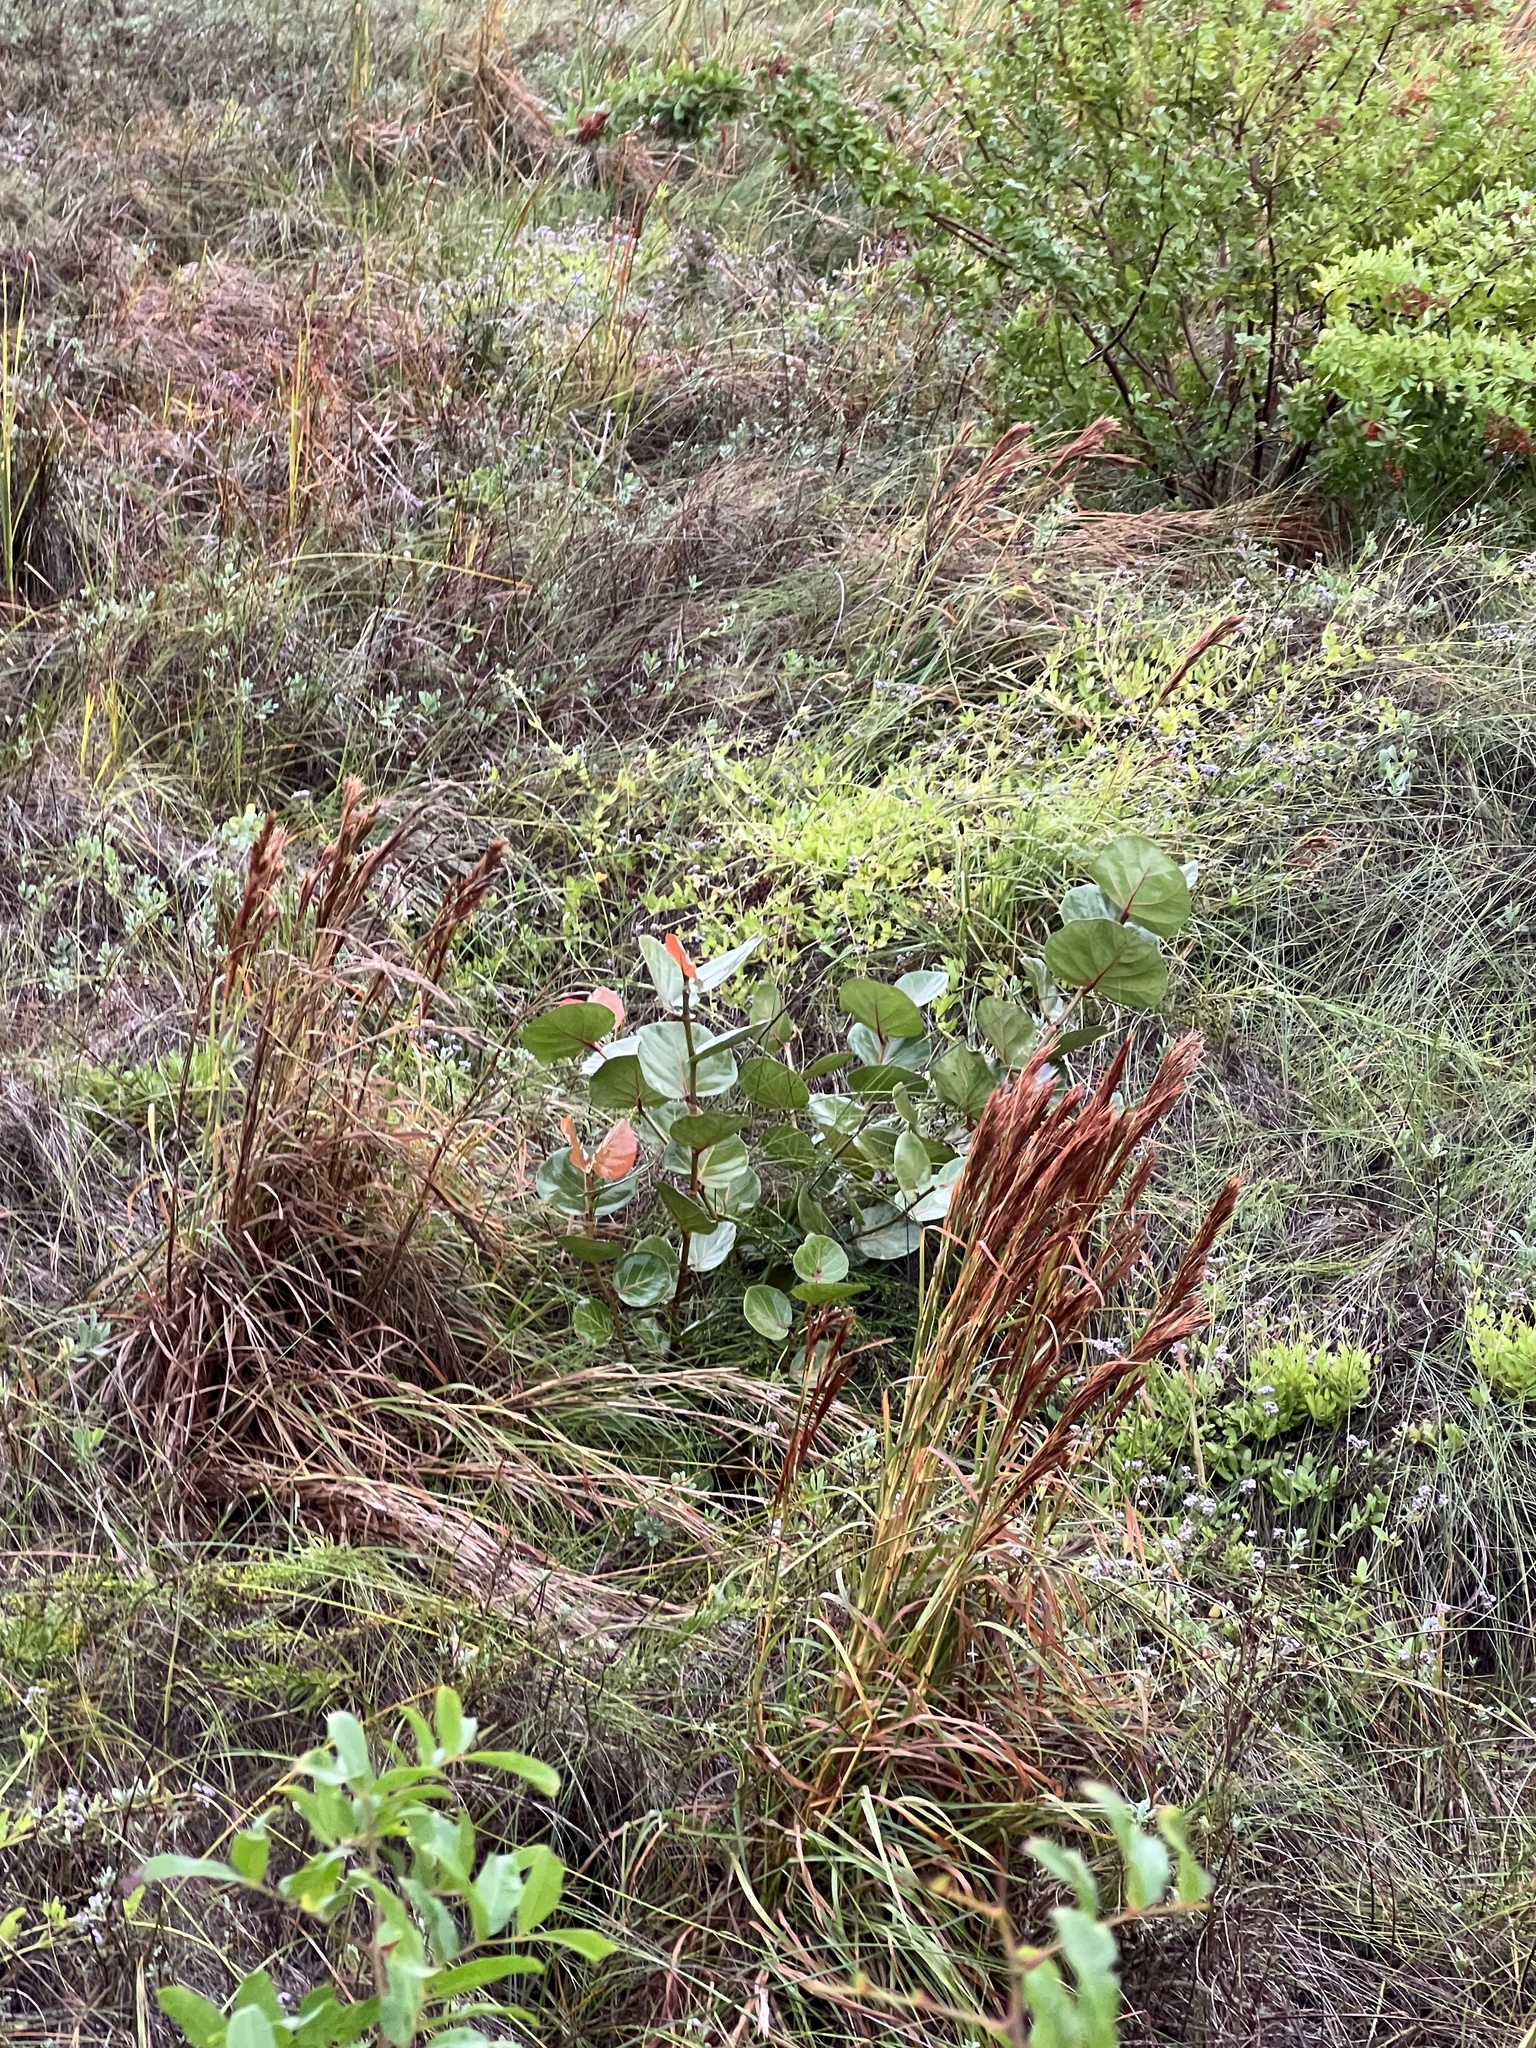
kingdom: Plantae
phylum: Tracheophyta
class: Liliopsida
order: Poales
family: Poaceae
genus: Andropogon
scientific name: Andropogon tenuispatheus
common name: Bushy bluestem
